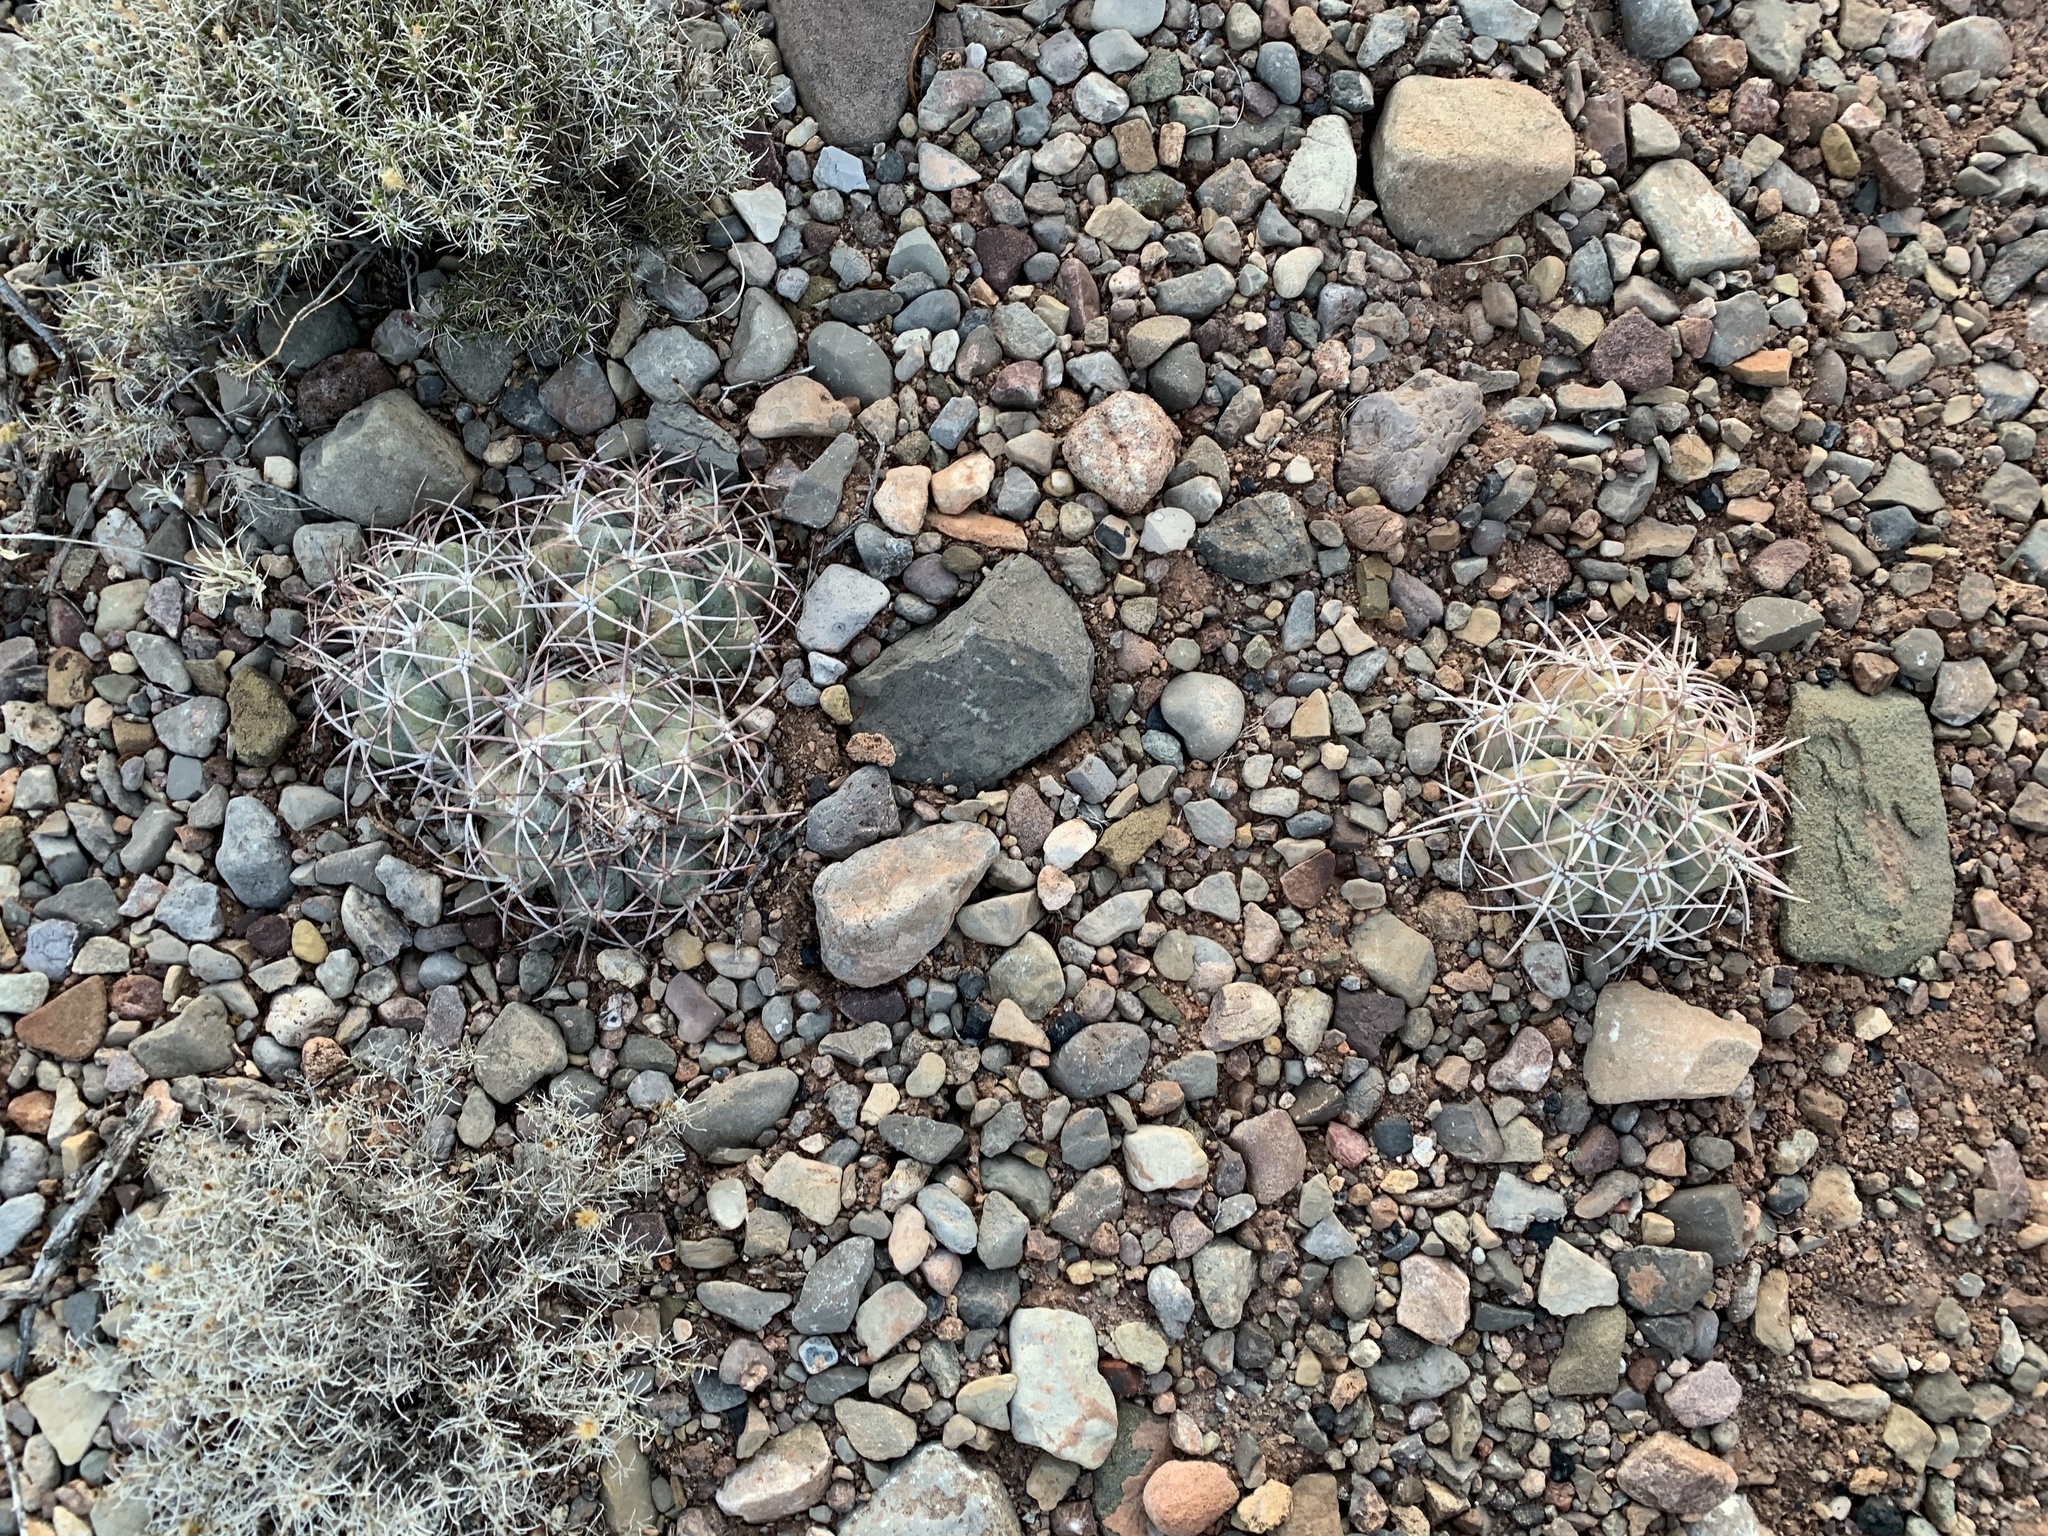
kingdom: Plantae
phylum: Tracheophyta
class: Magnoliopsida
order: Caryophyllales
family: Cactaceae
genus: Echinocactus
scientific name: Echinocactus horizonthalonius
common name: Devilshead
